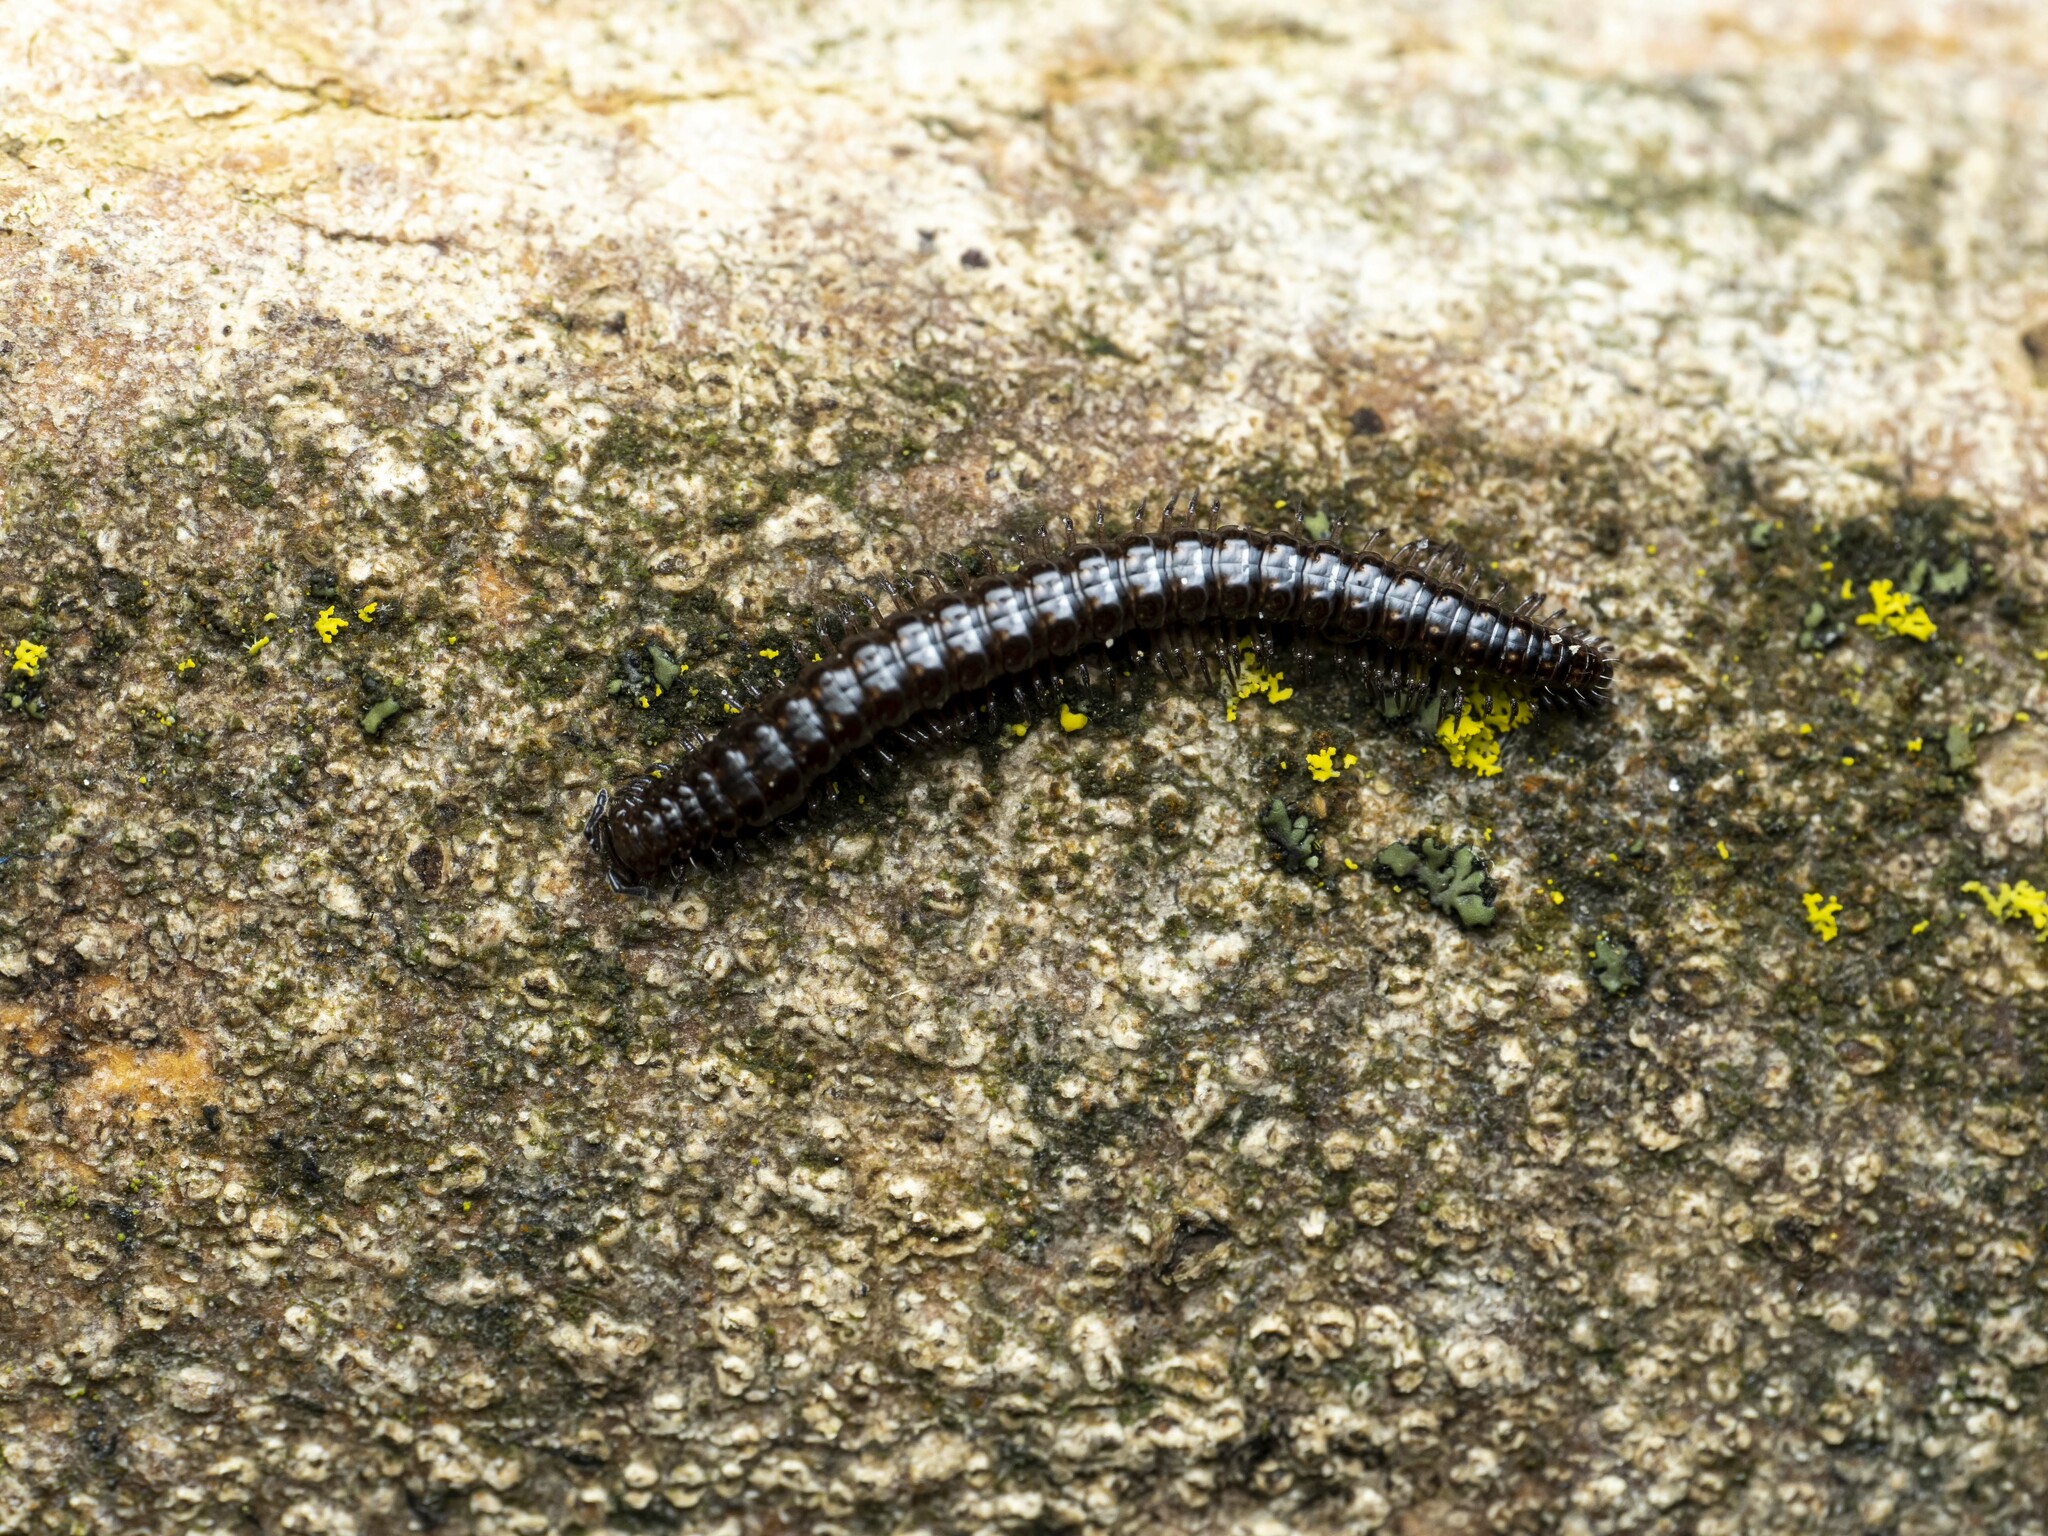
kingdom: Animalia
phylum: Arthropoda
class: Diplopoda
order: Chordeumatida
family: Craspedosomatidae
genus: Craspedosoma
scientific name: Craspedosoma rawlinsii
